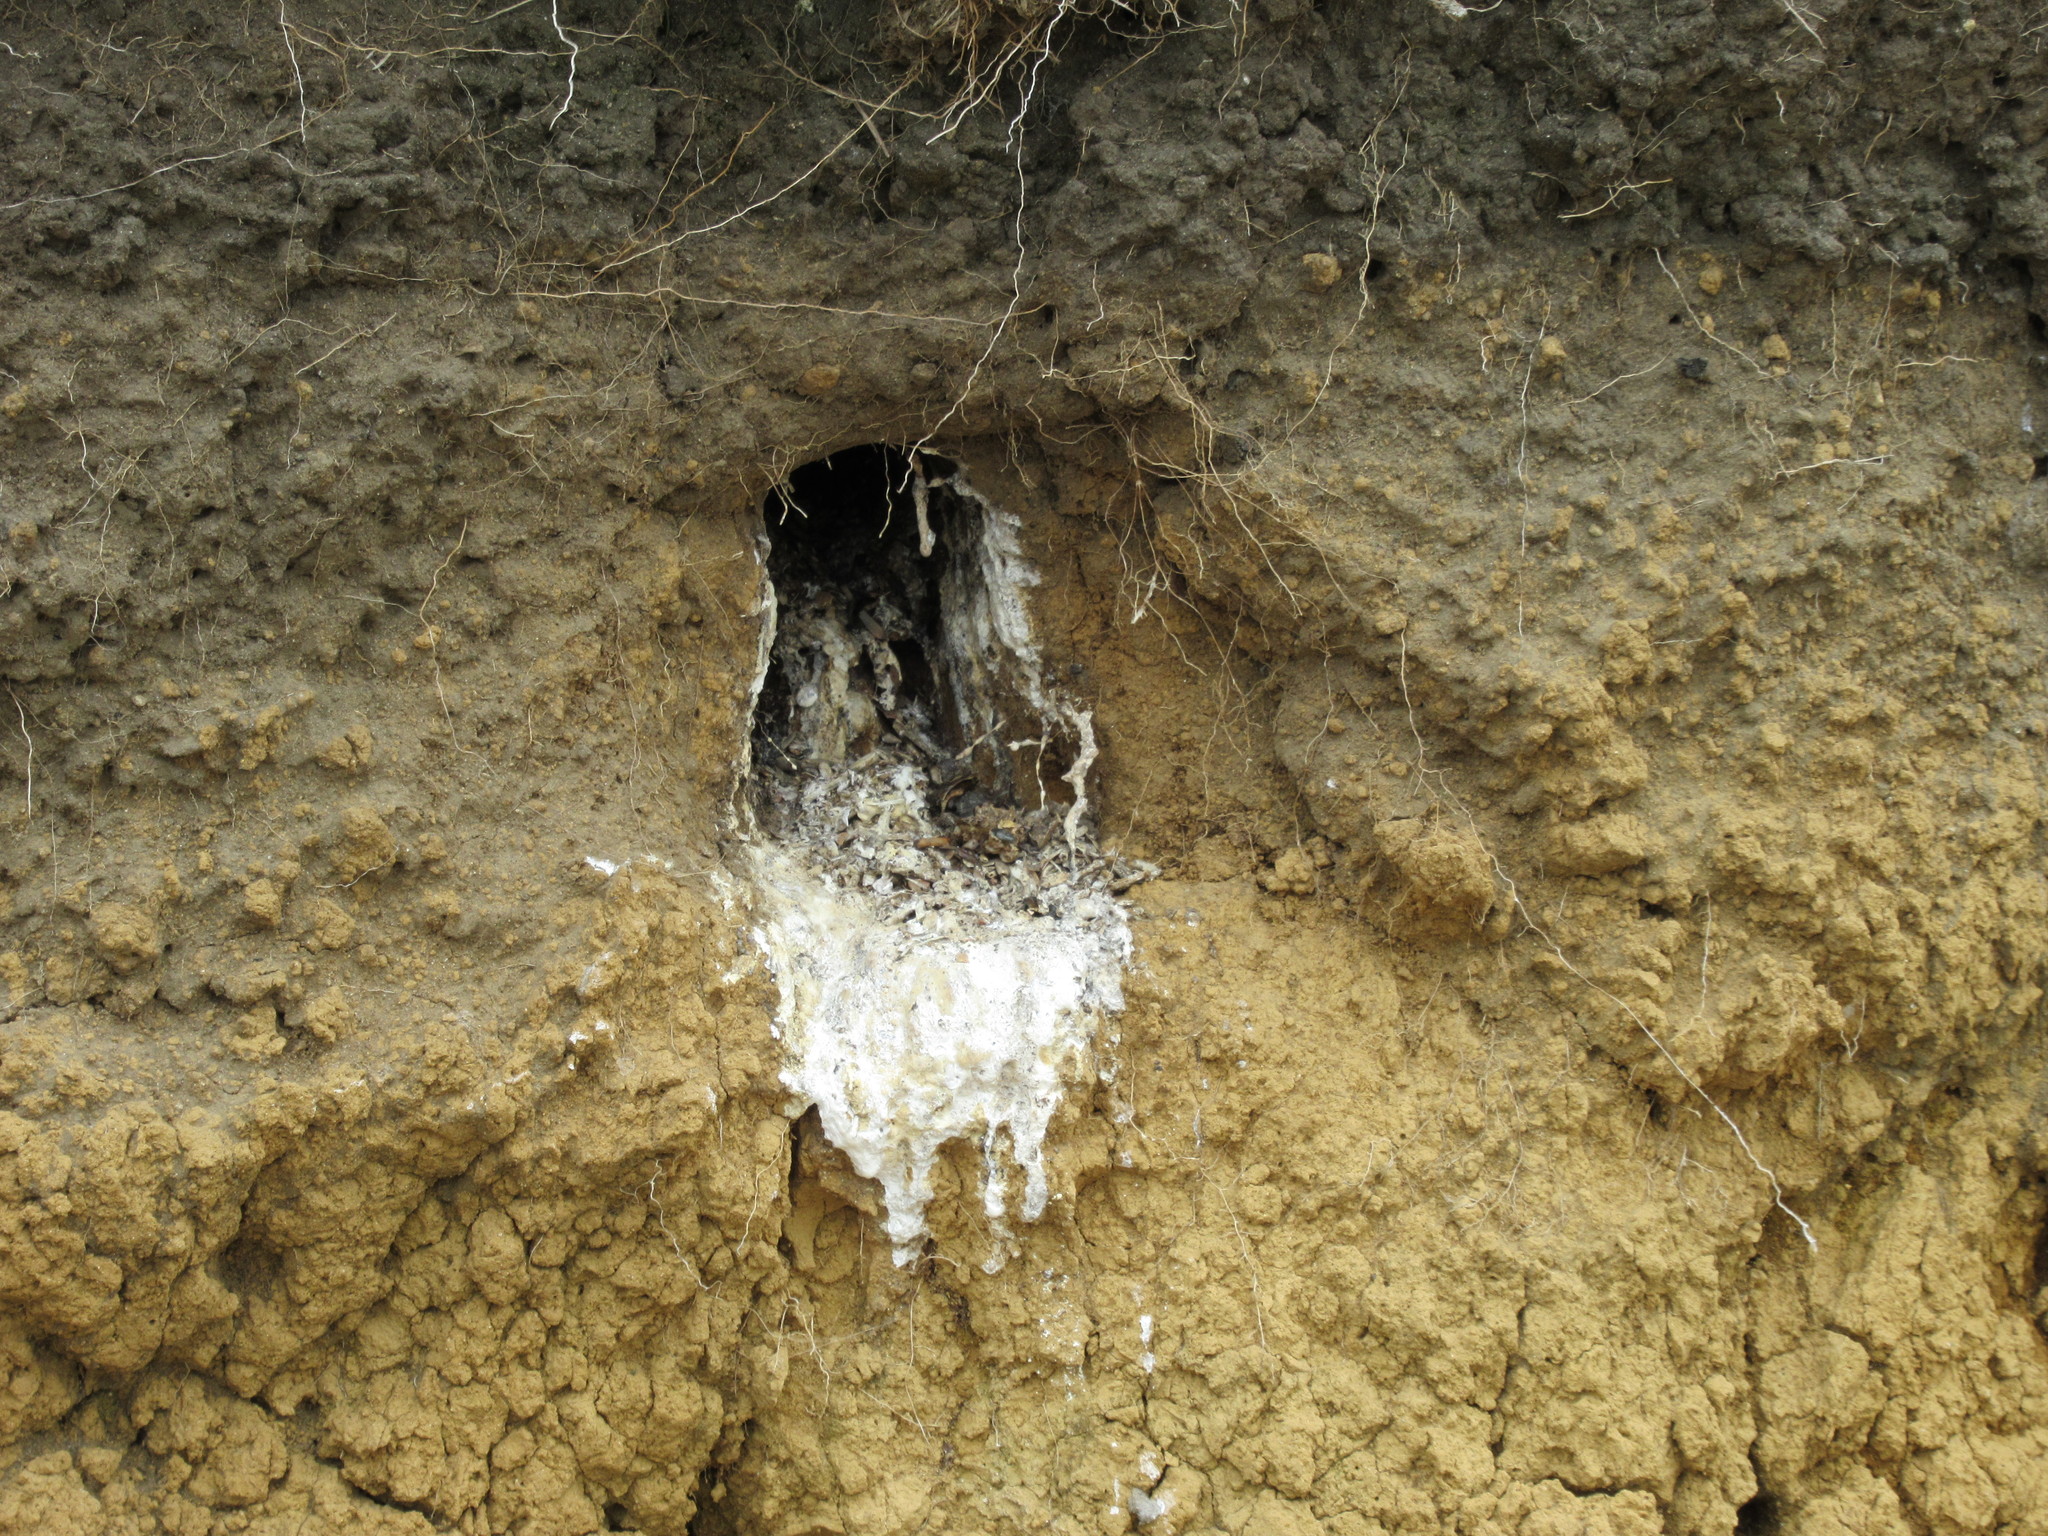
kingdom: Animalia
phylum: Chordata
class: Aves
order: Coraciiformes
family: Alcedinidae
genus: Todiramphus
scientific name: Todiramphus sanctus
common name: Sacred kingfisher
